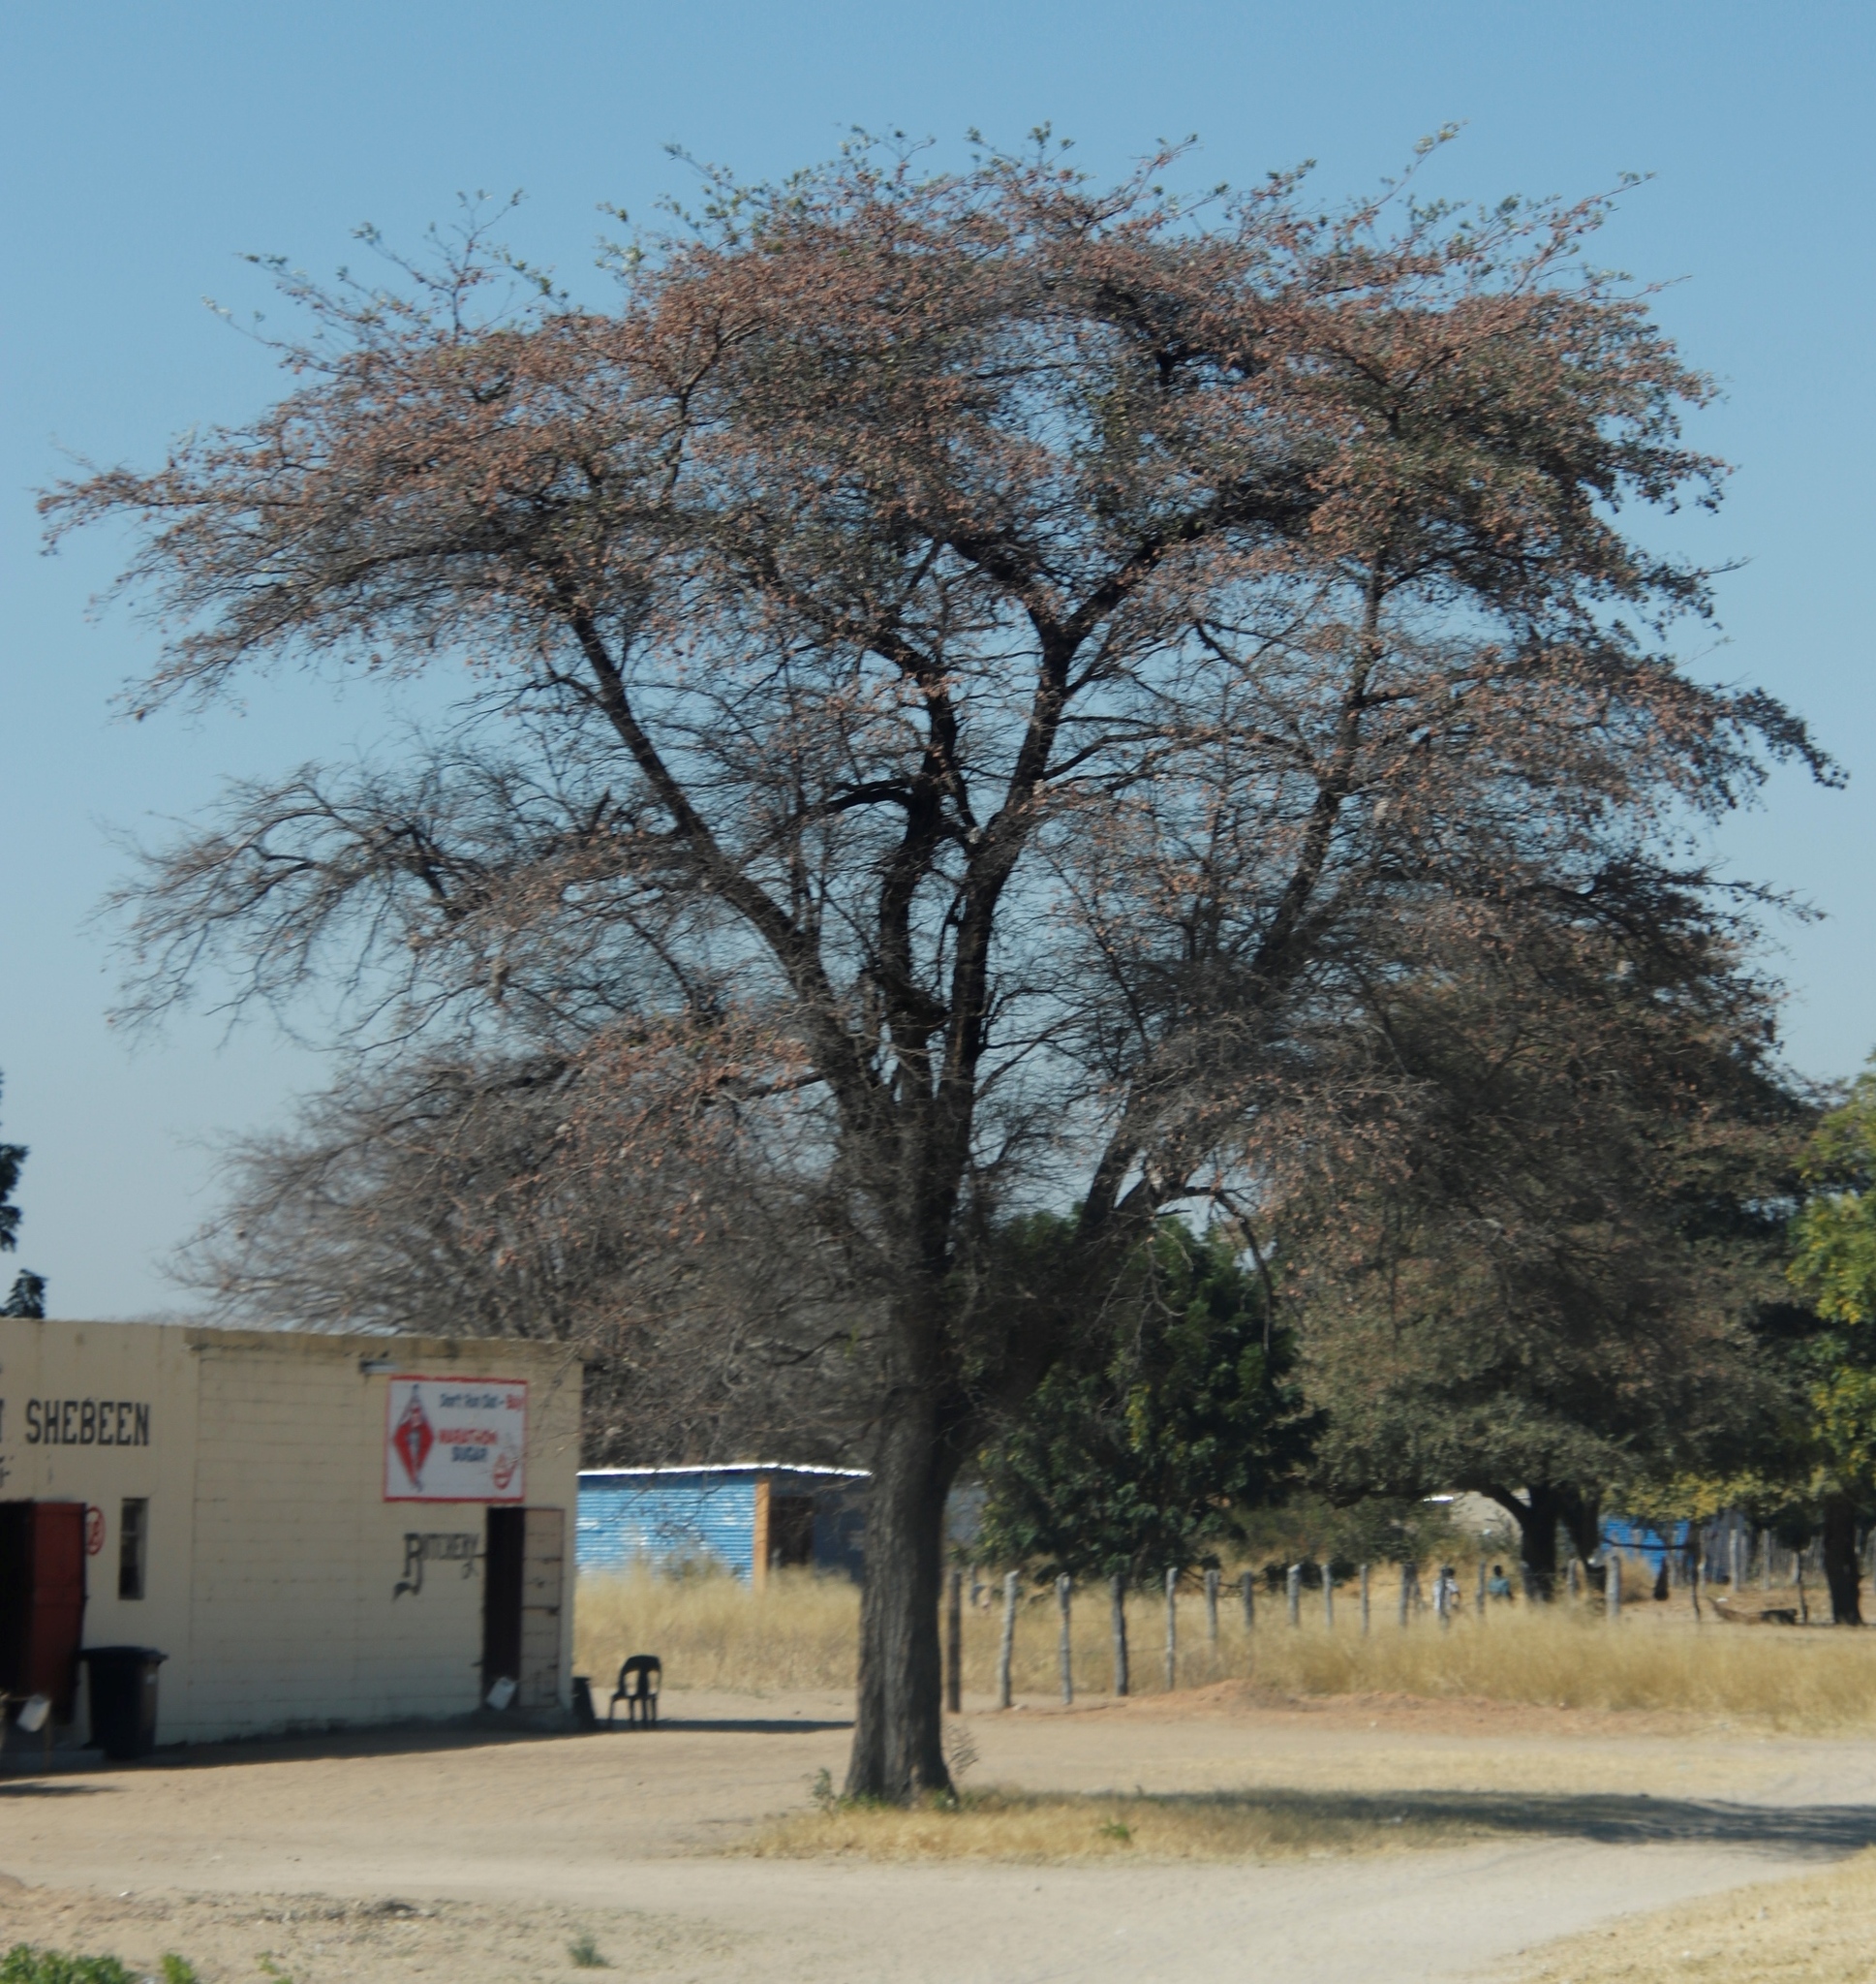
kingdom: Plantae
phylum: Tracheophyta
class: Magnoliopsida
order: Myrtales
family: Combretaceae
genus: Terminalia
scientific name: Terminalia prunioides
